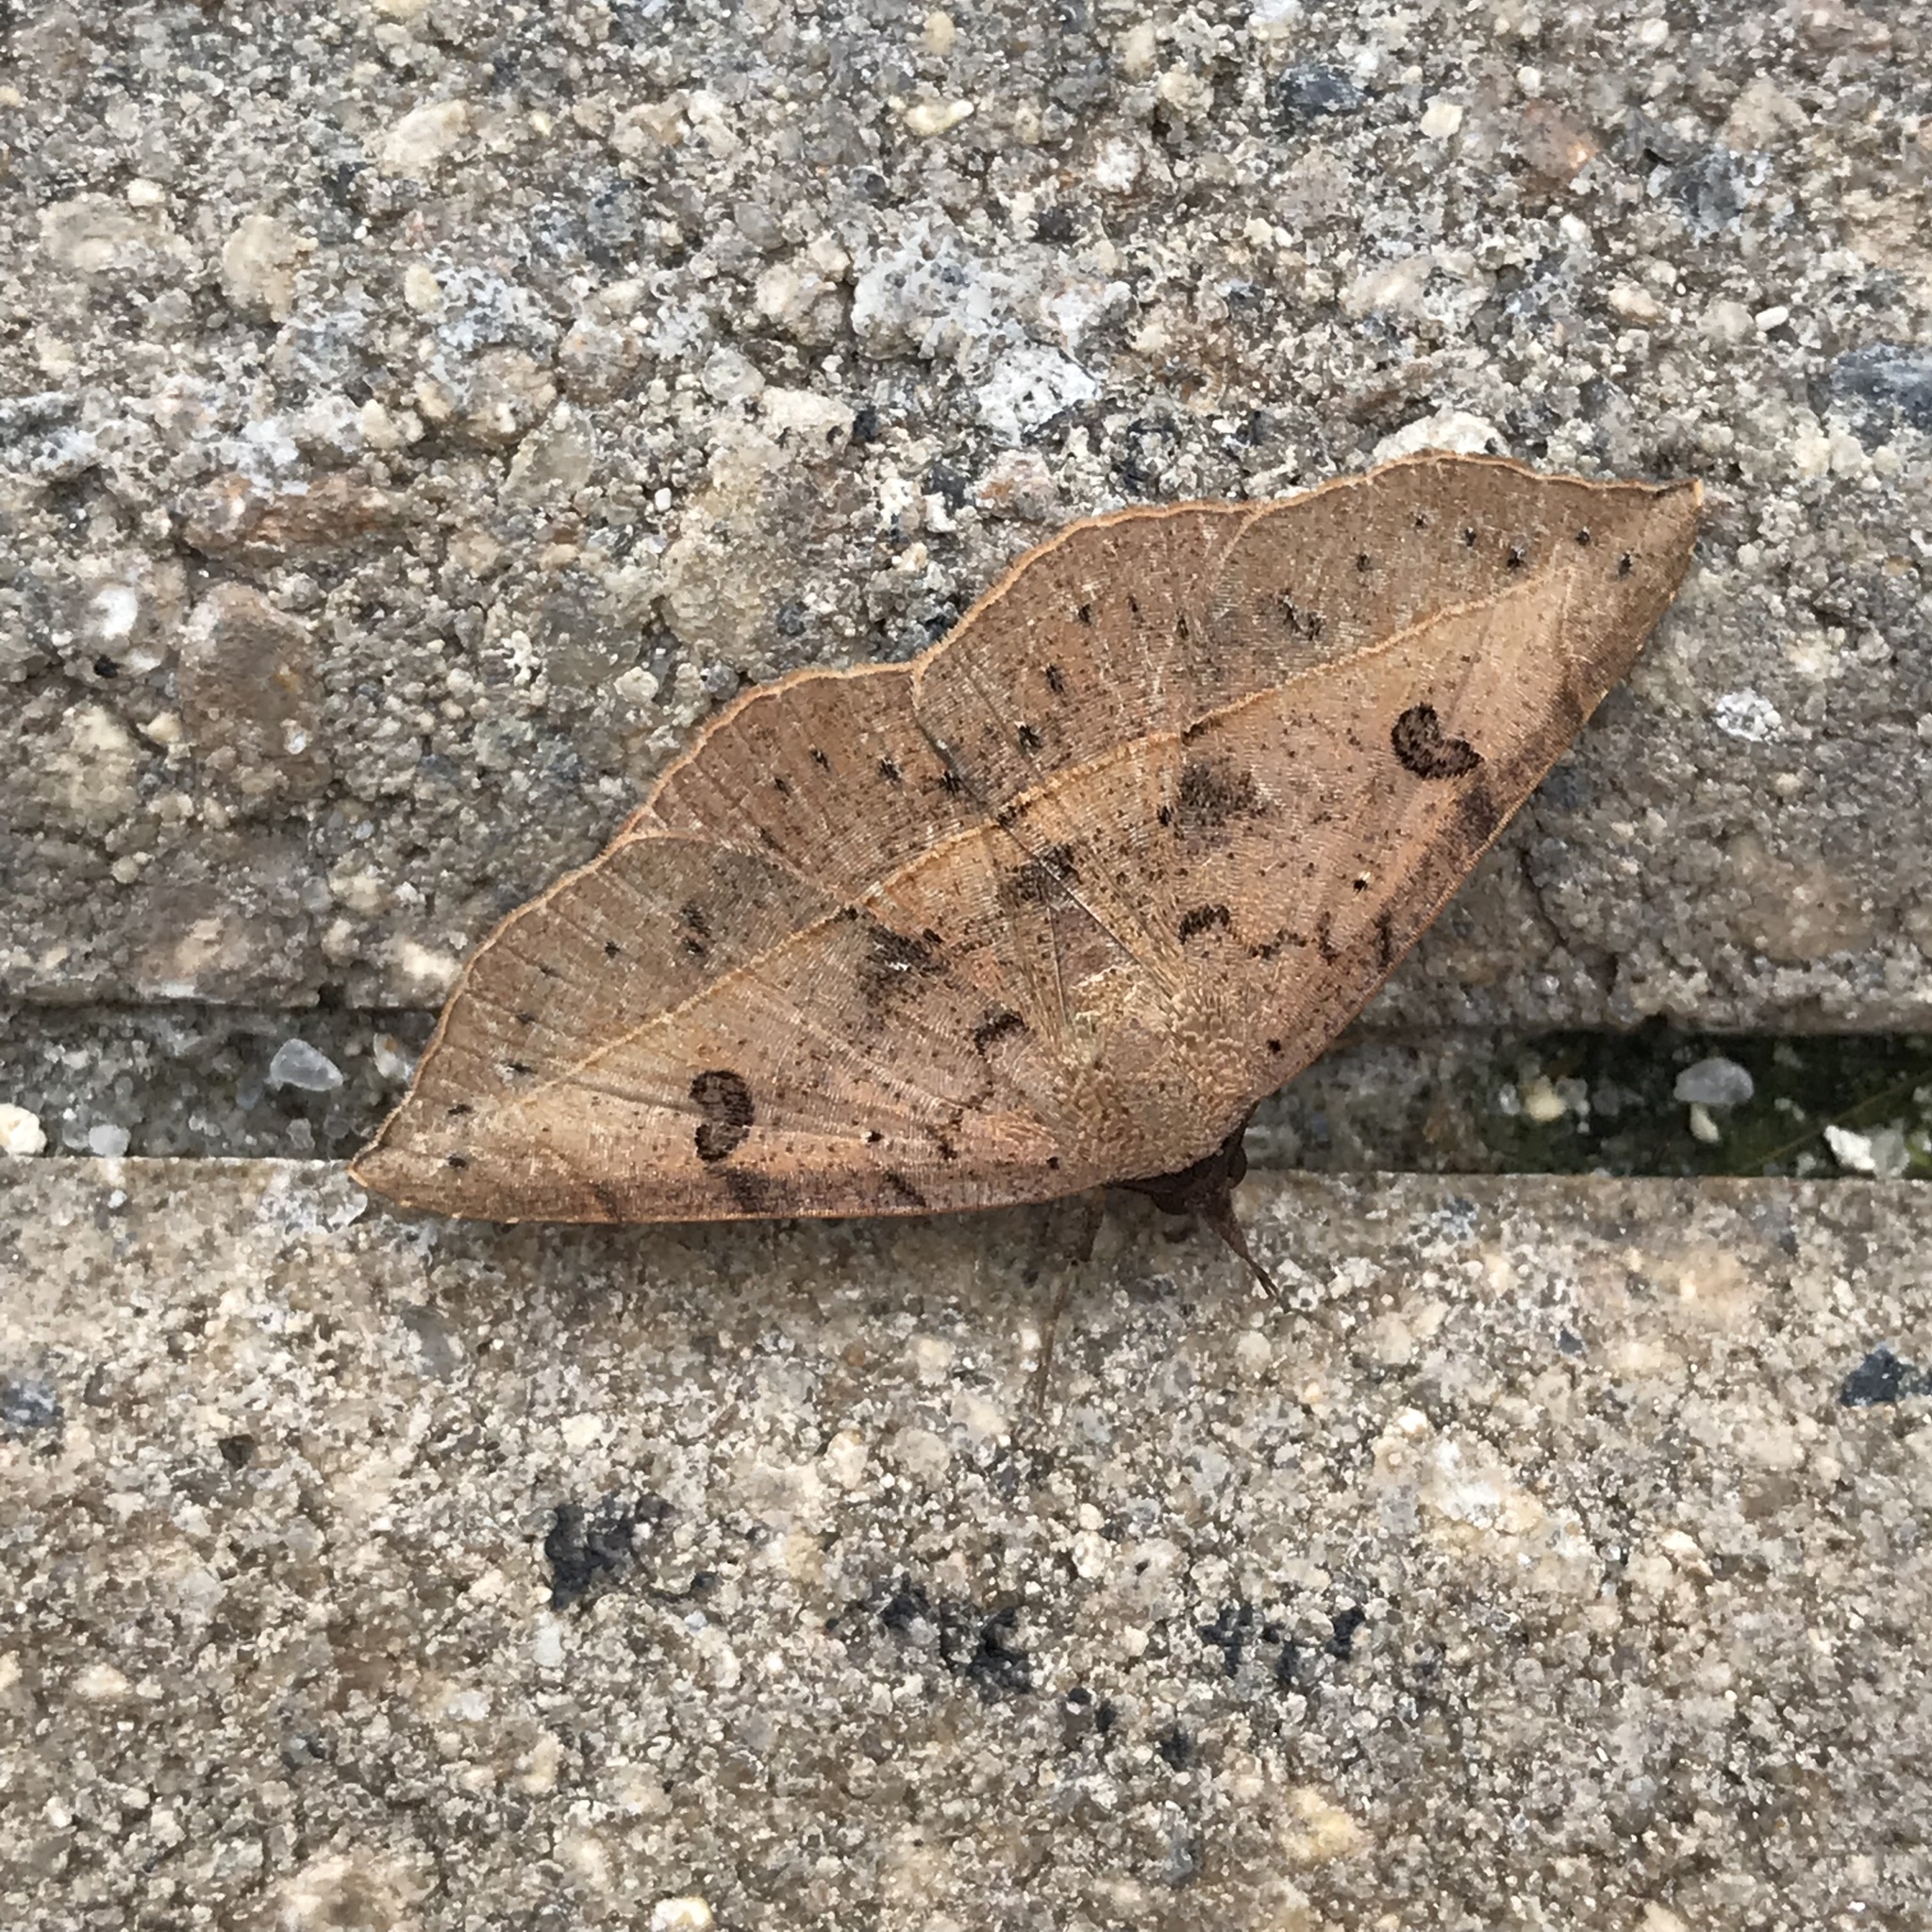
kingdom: Animalia
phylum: Arthropoda
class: Insecta
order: Lepidoptera
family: Erebidae
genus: Metallata
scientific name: Metallata absumens
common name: Brown leaf mimic
